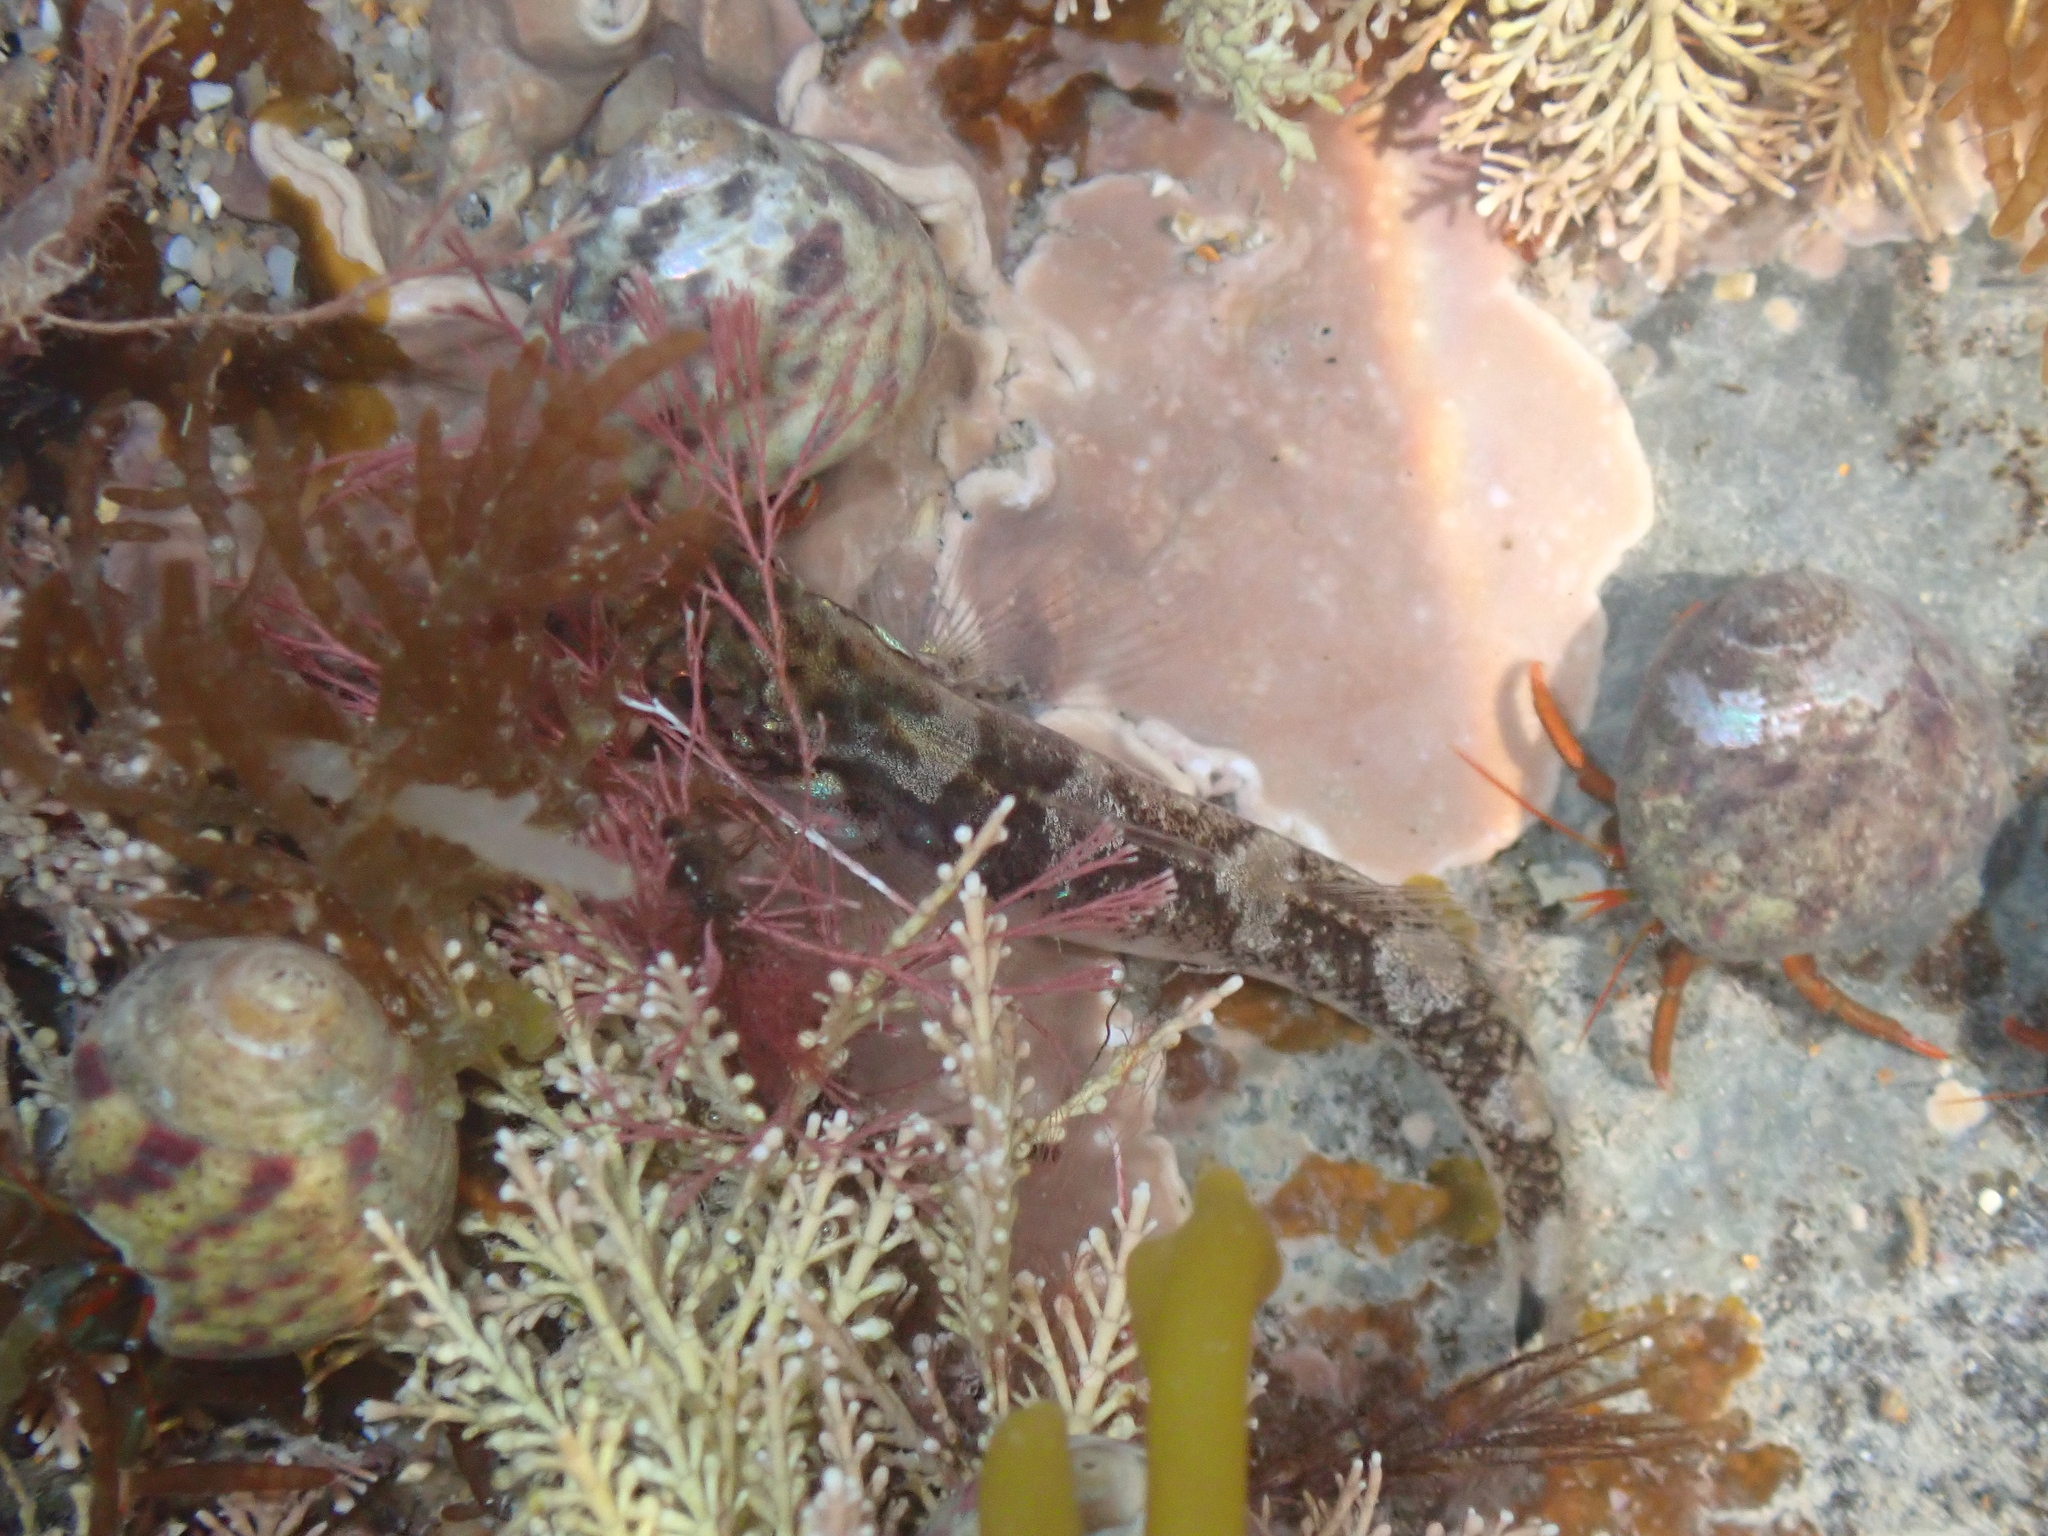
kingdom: Animalia
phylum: Chordata
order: Perciformes
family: Gobiidae
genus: Gobiusculus
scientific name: Gobiusculus flavescens
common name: Two-spotted goby
